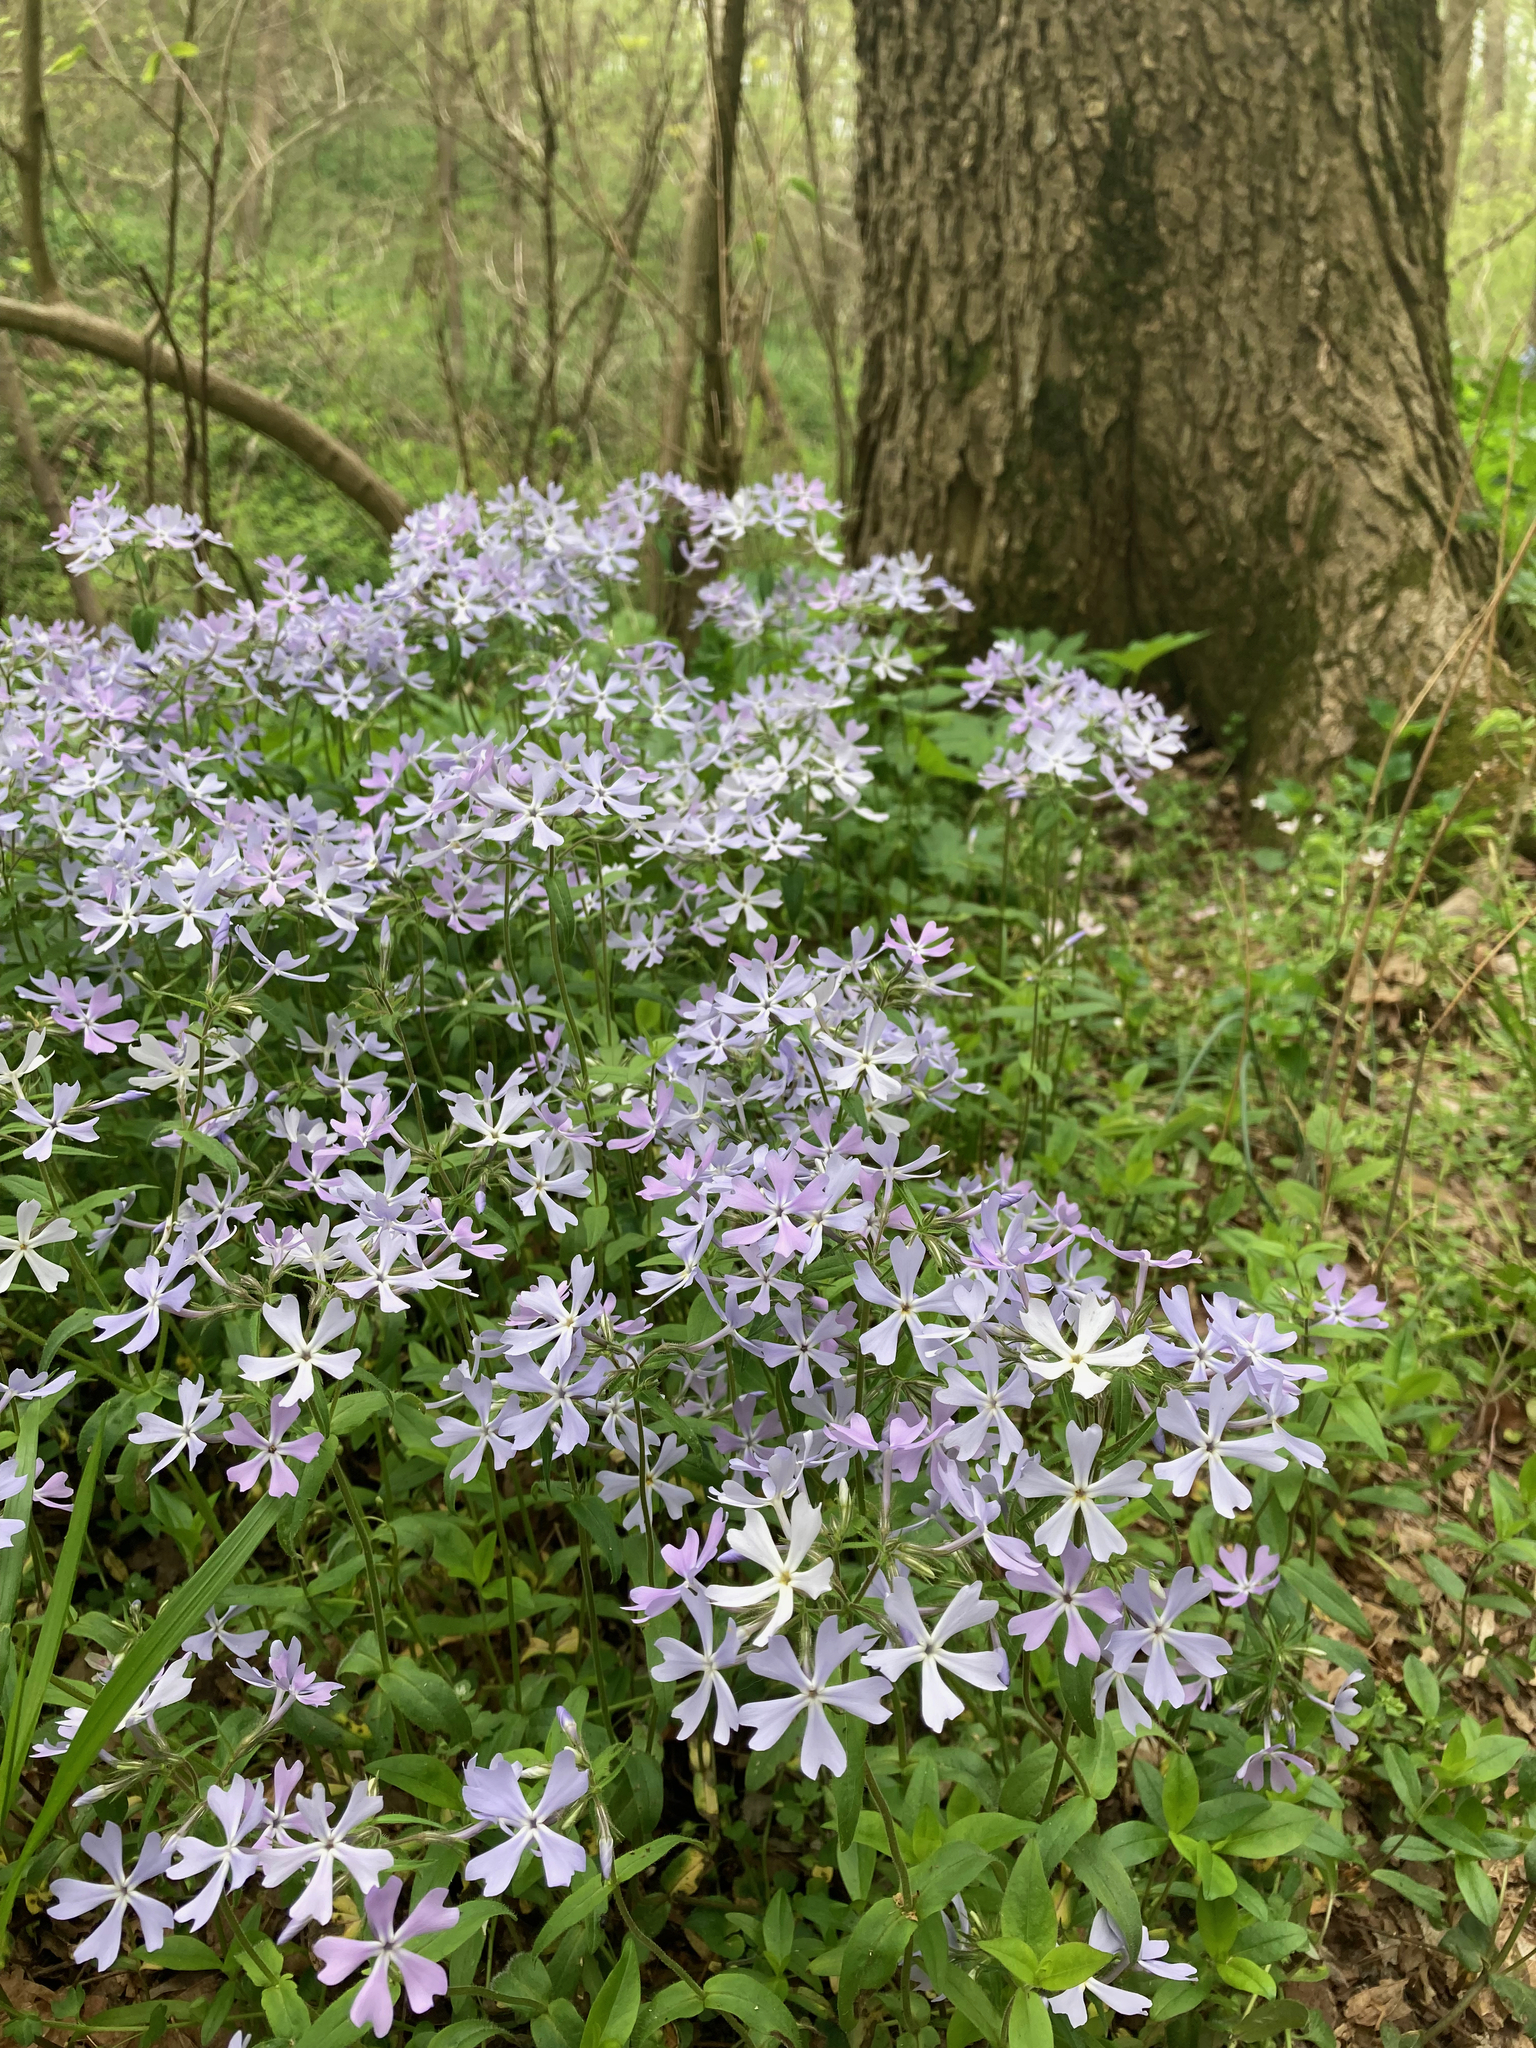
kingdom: Plantae
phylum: Tracheophyta
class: Magnoliopsida
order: Ericales
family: Polemoniaceae
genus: Phlox
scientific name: Phlox divaricata
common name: Blue phlox
